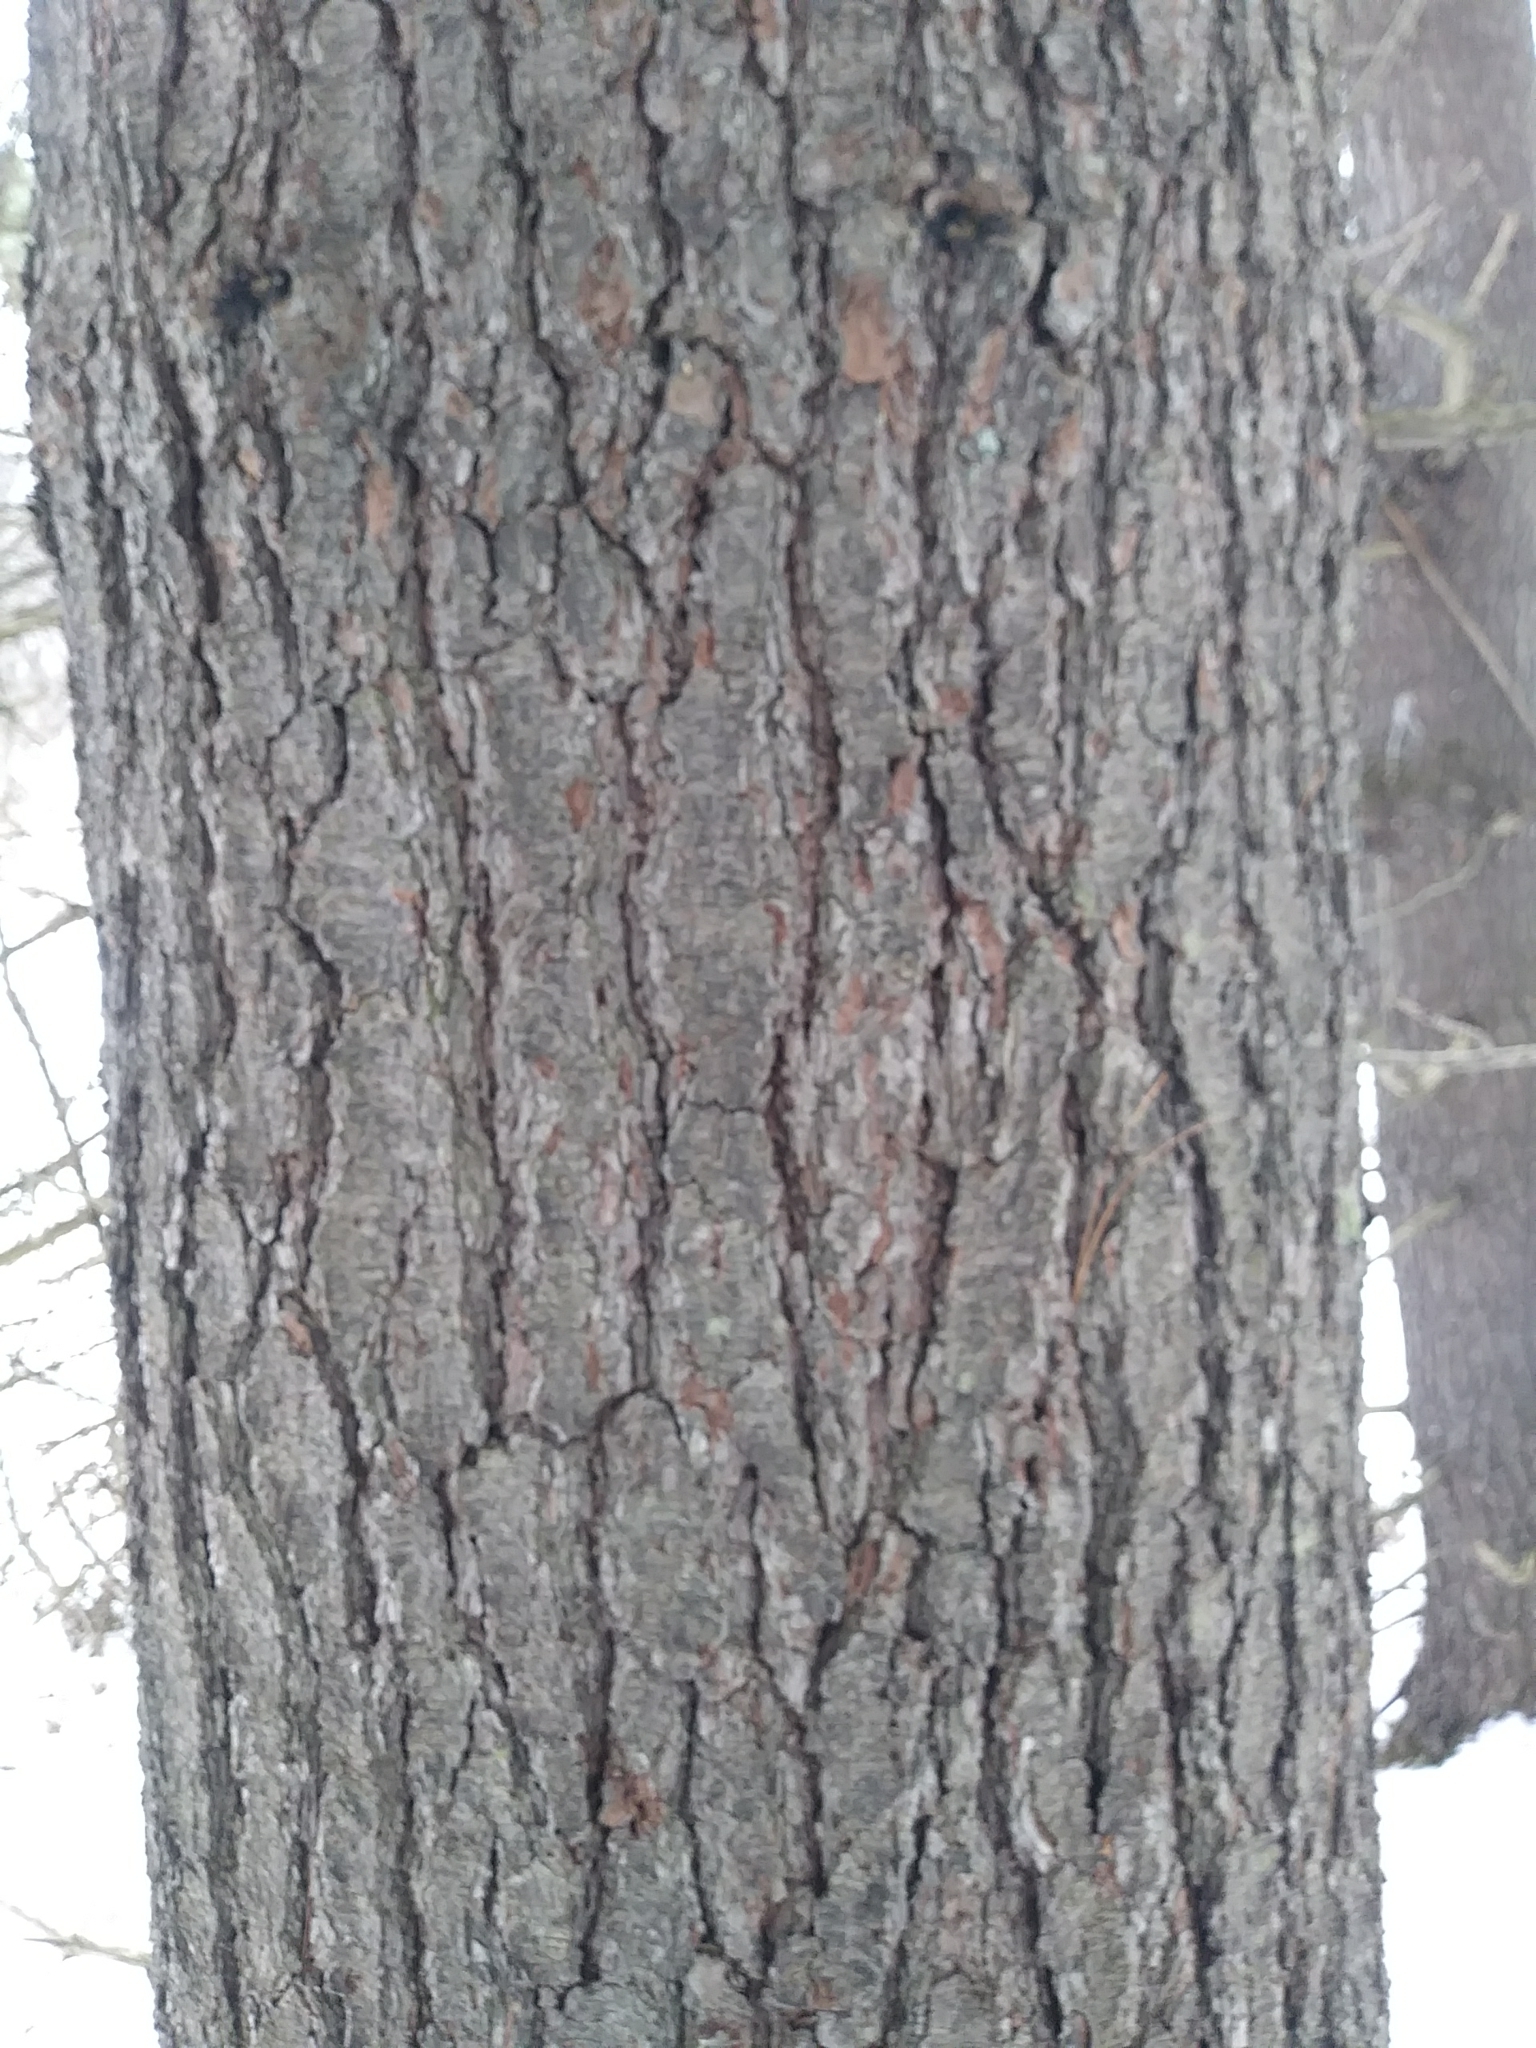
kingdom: Plantae
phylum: Tracheophyta
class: Pinopsida
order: Pinales
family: Pinaceae
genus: Pinus
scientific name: Pinus strobus
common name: Weymouth pine
